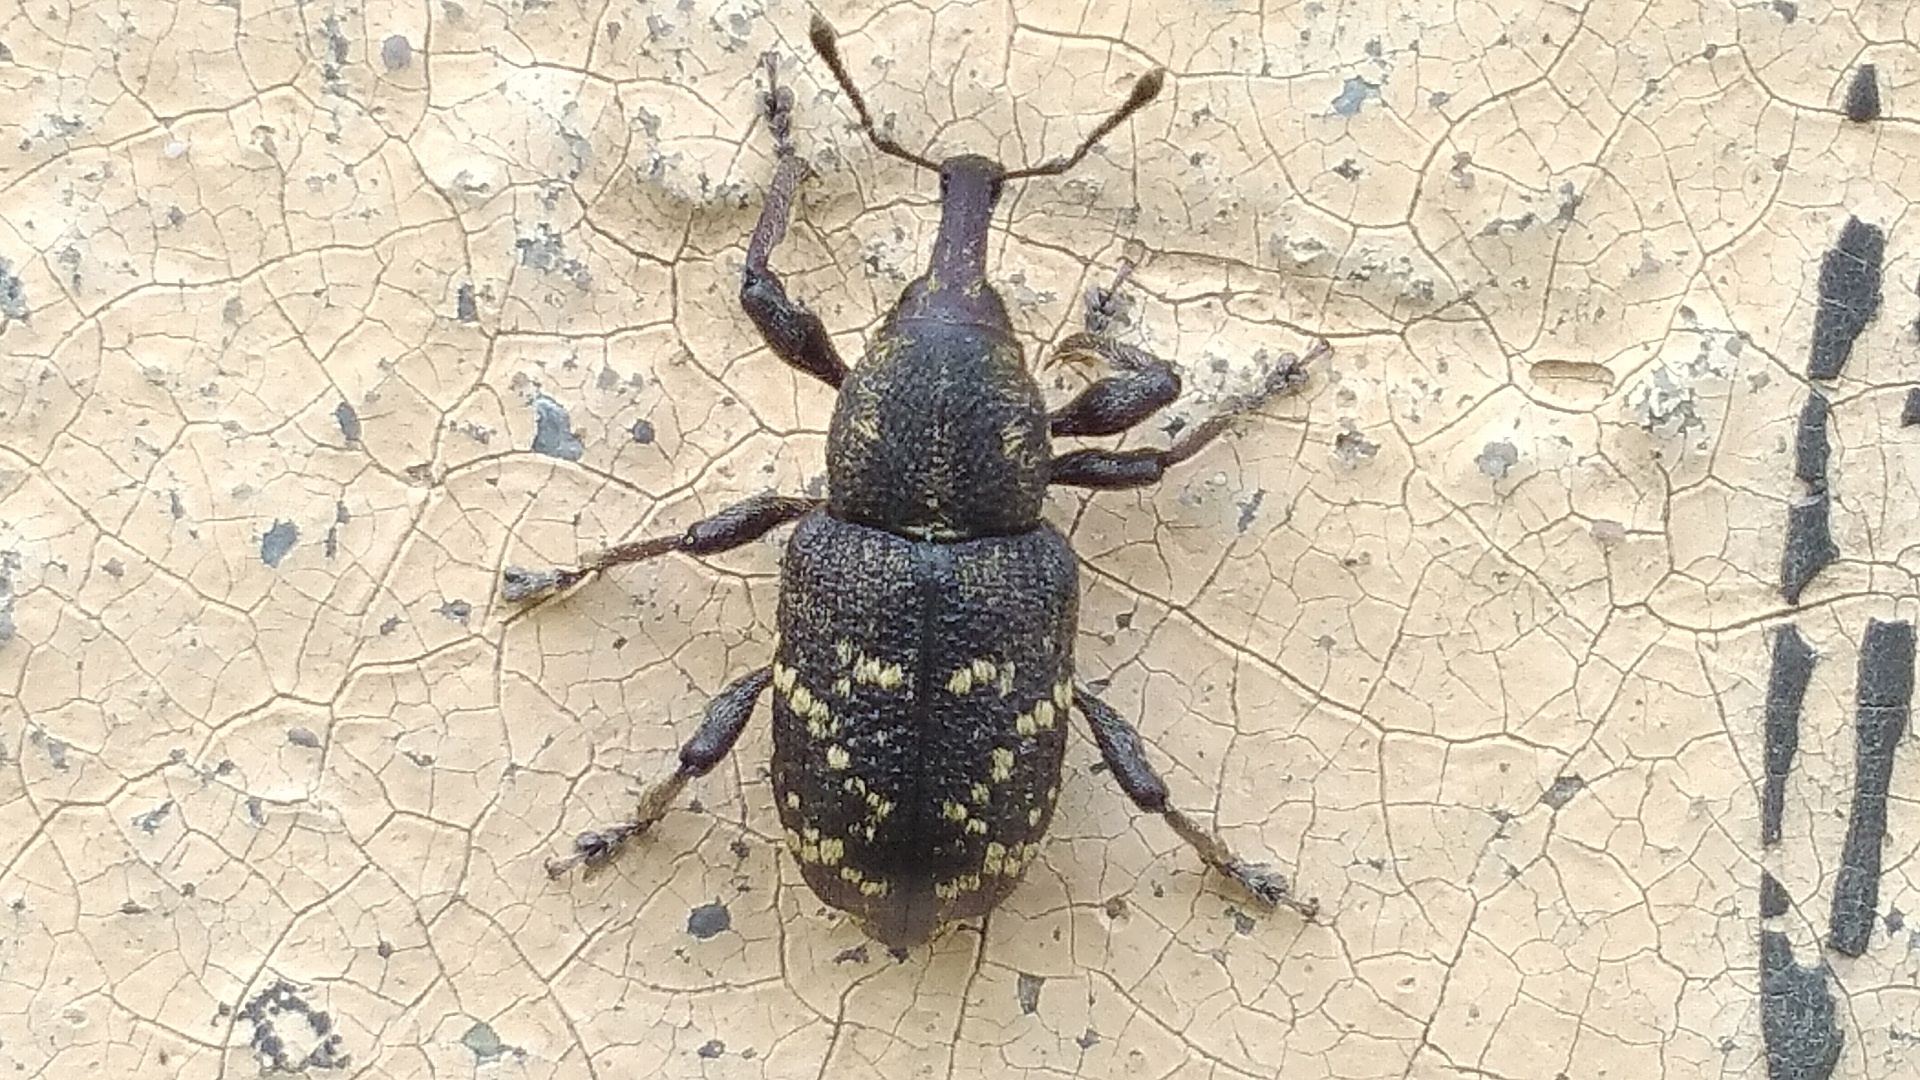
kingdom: Animalia
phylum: Arthropoda
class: Insecta
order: Coleoptera
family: Curculionidae
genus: Hylobius
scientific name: Hylobius abietis
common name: Large pine weevil
